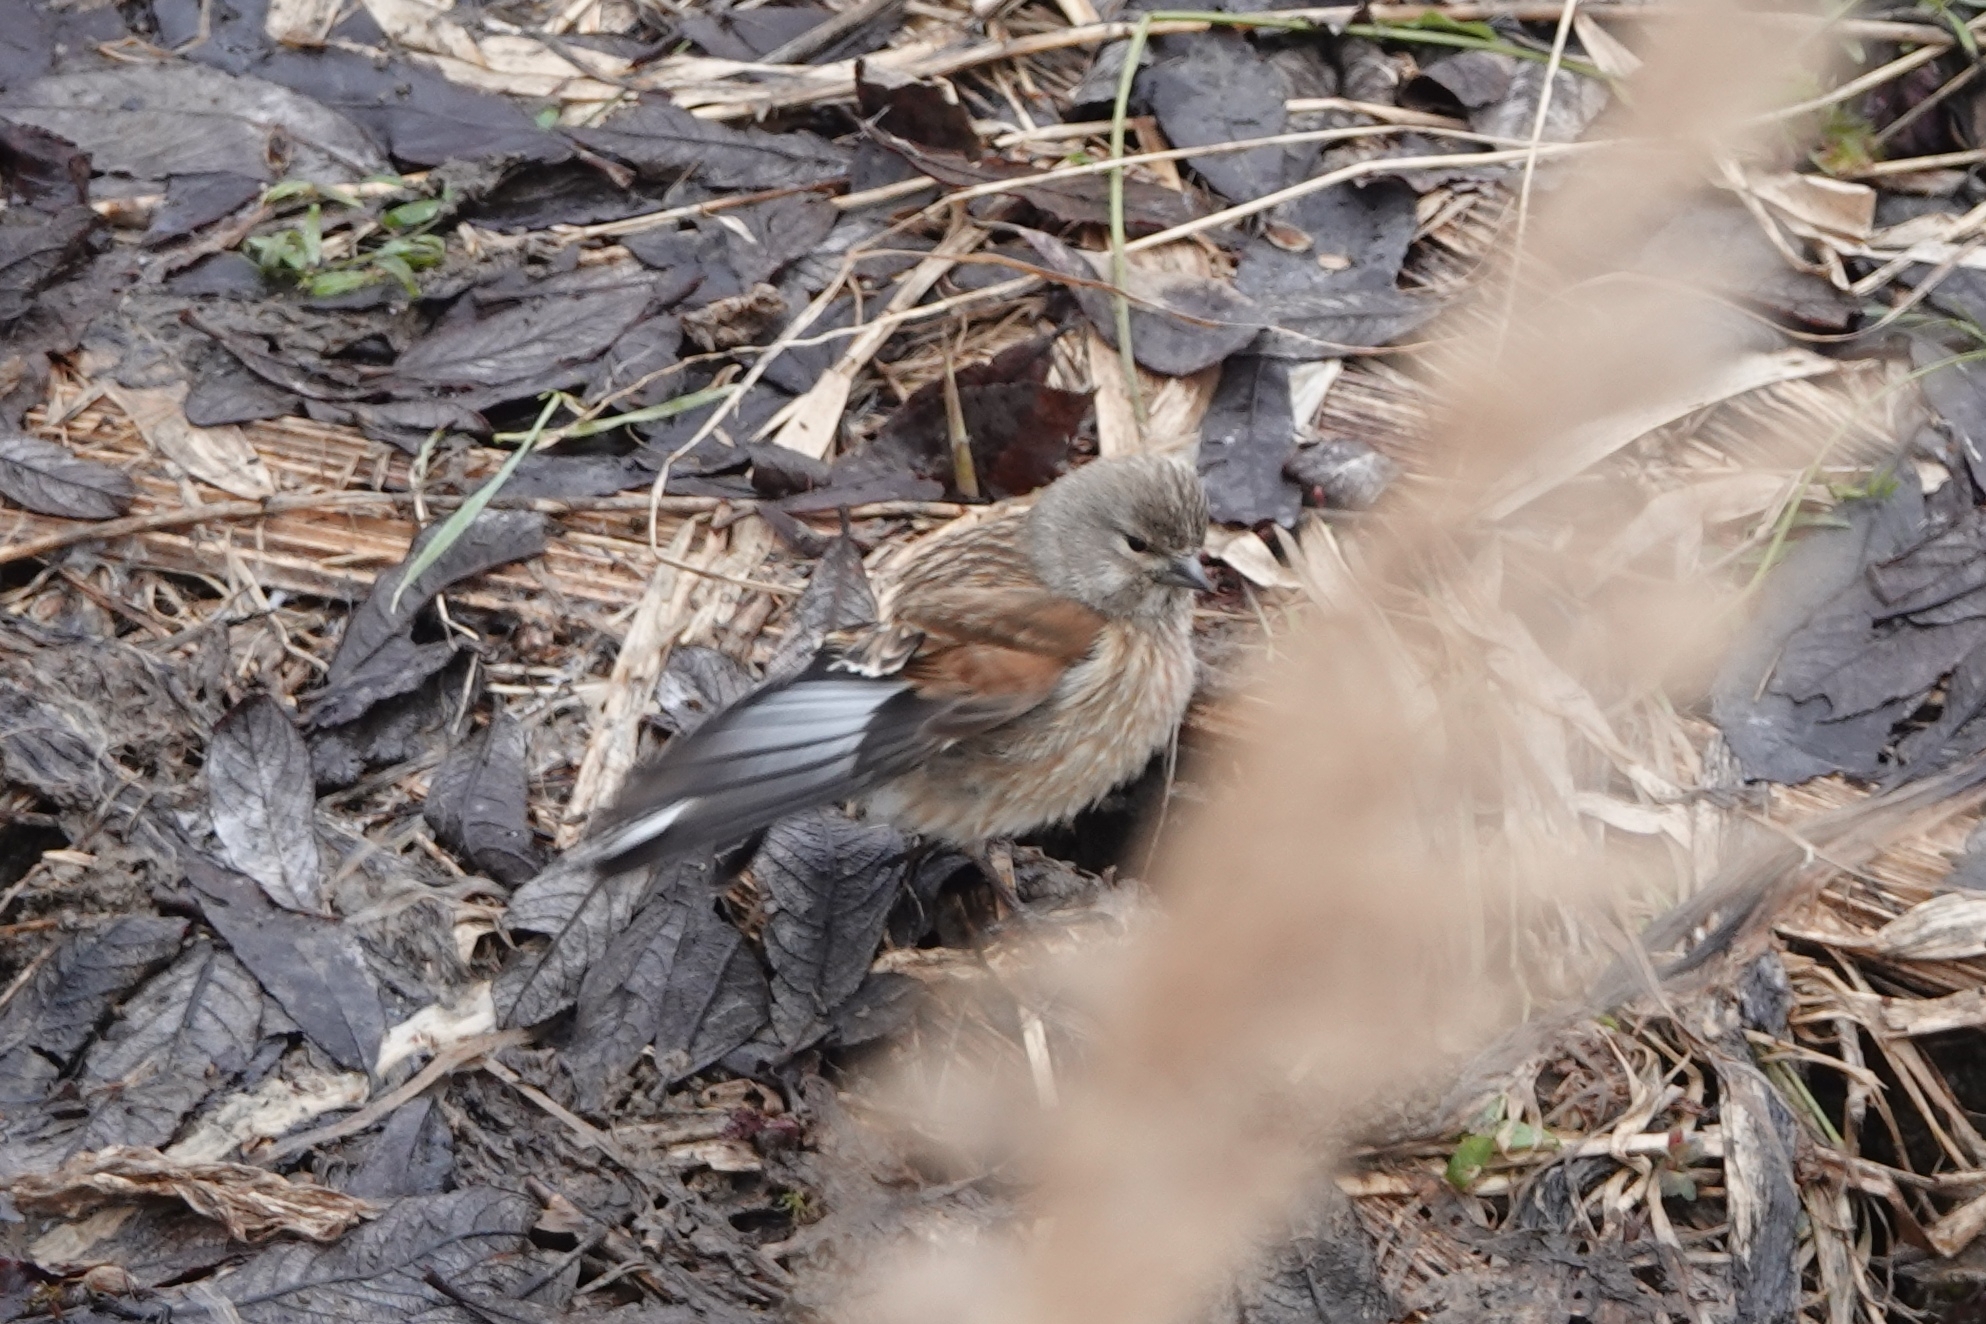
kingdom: Animalia
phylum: Chordata
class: Aves
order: Passeriformes
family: Fringillidae
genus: Linaria
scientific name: Linaria cannabina
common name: Common linnet
